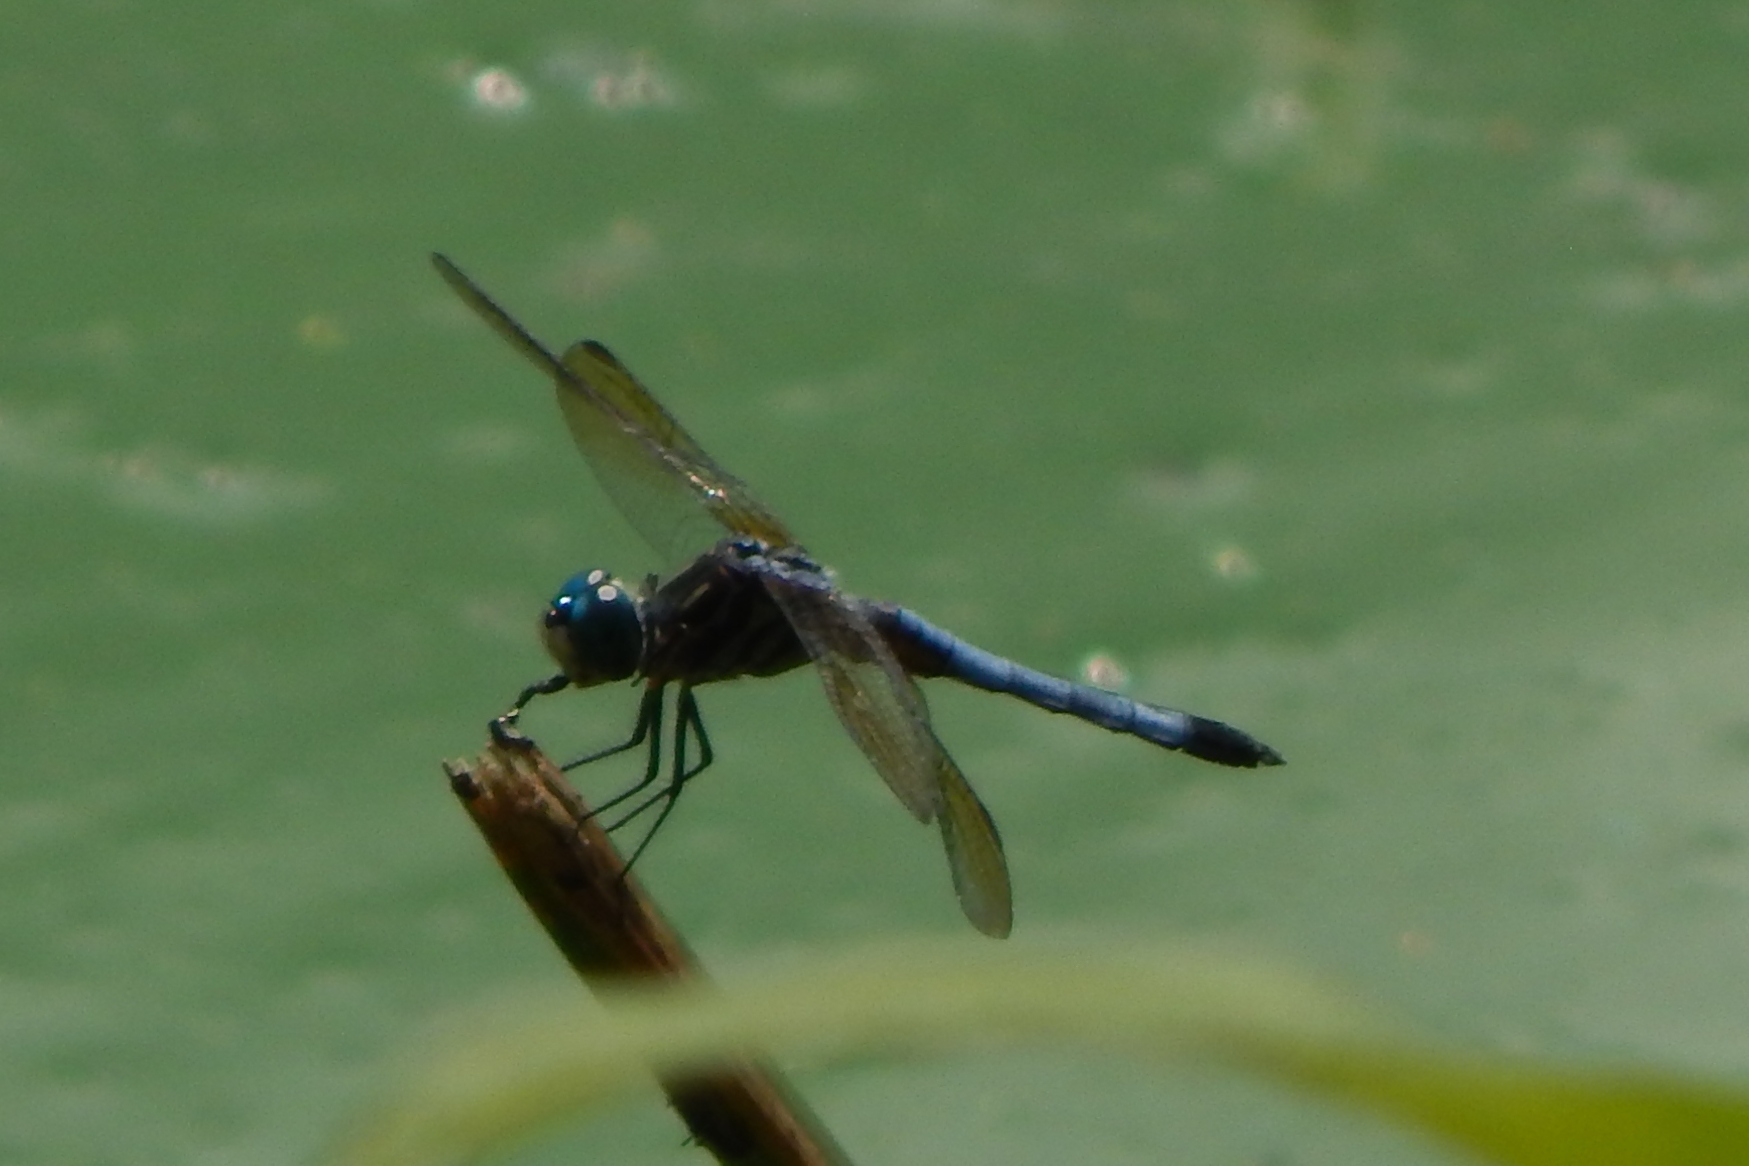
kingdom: Animalia
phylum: Arthropoda
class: Insecta
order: Odonata
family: Libellulidae
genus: Pachydiplax
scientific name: Pachydiplax longipennis
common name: Blue dasher
